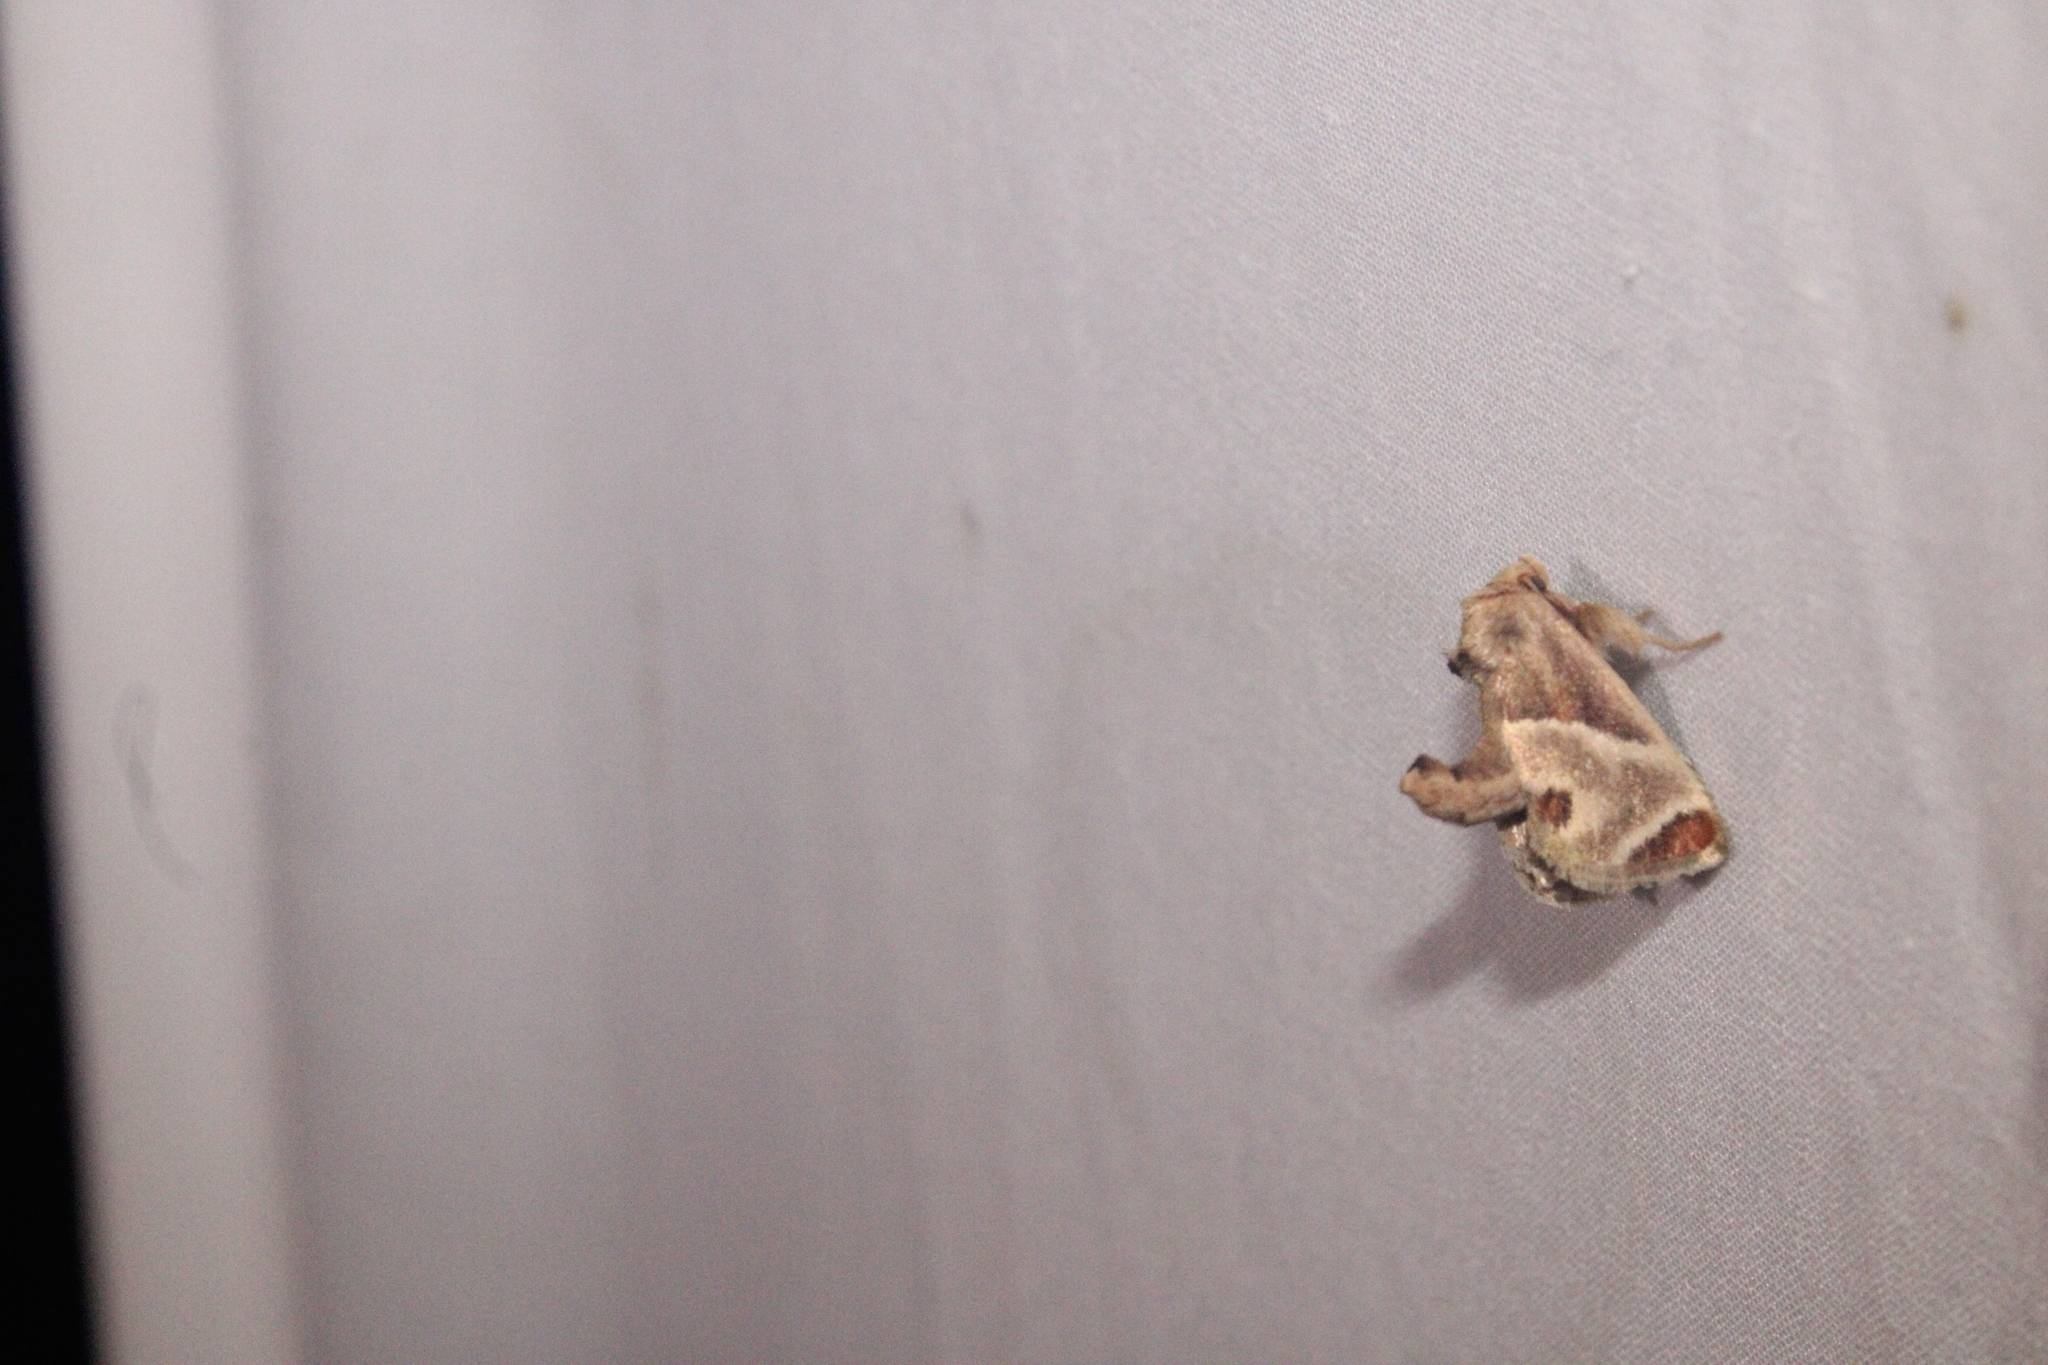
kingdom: Animalia
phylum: Arthropoda
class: Insecta
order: Lepidoptera
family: Limacodidae
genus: Apoda
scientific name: Apoda biguttata
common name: Shagreened slug moth
